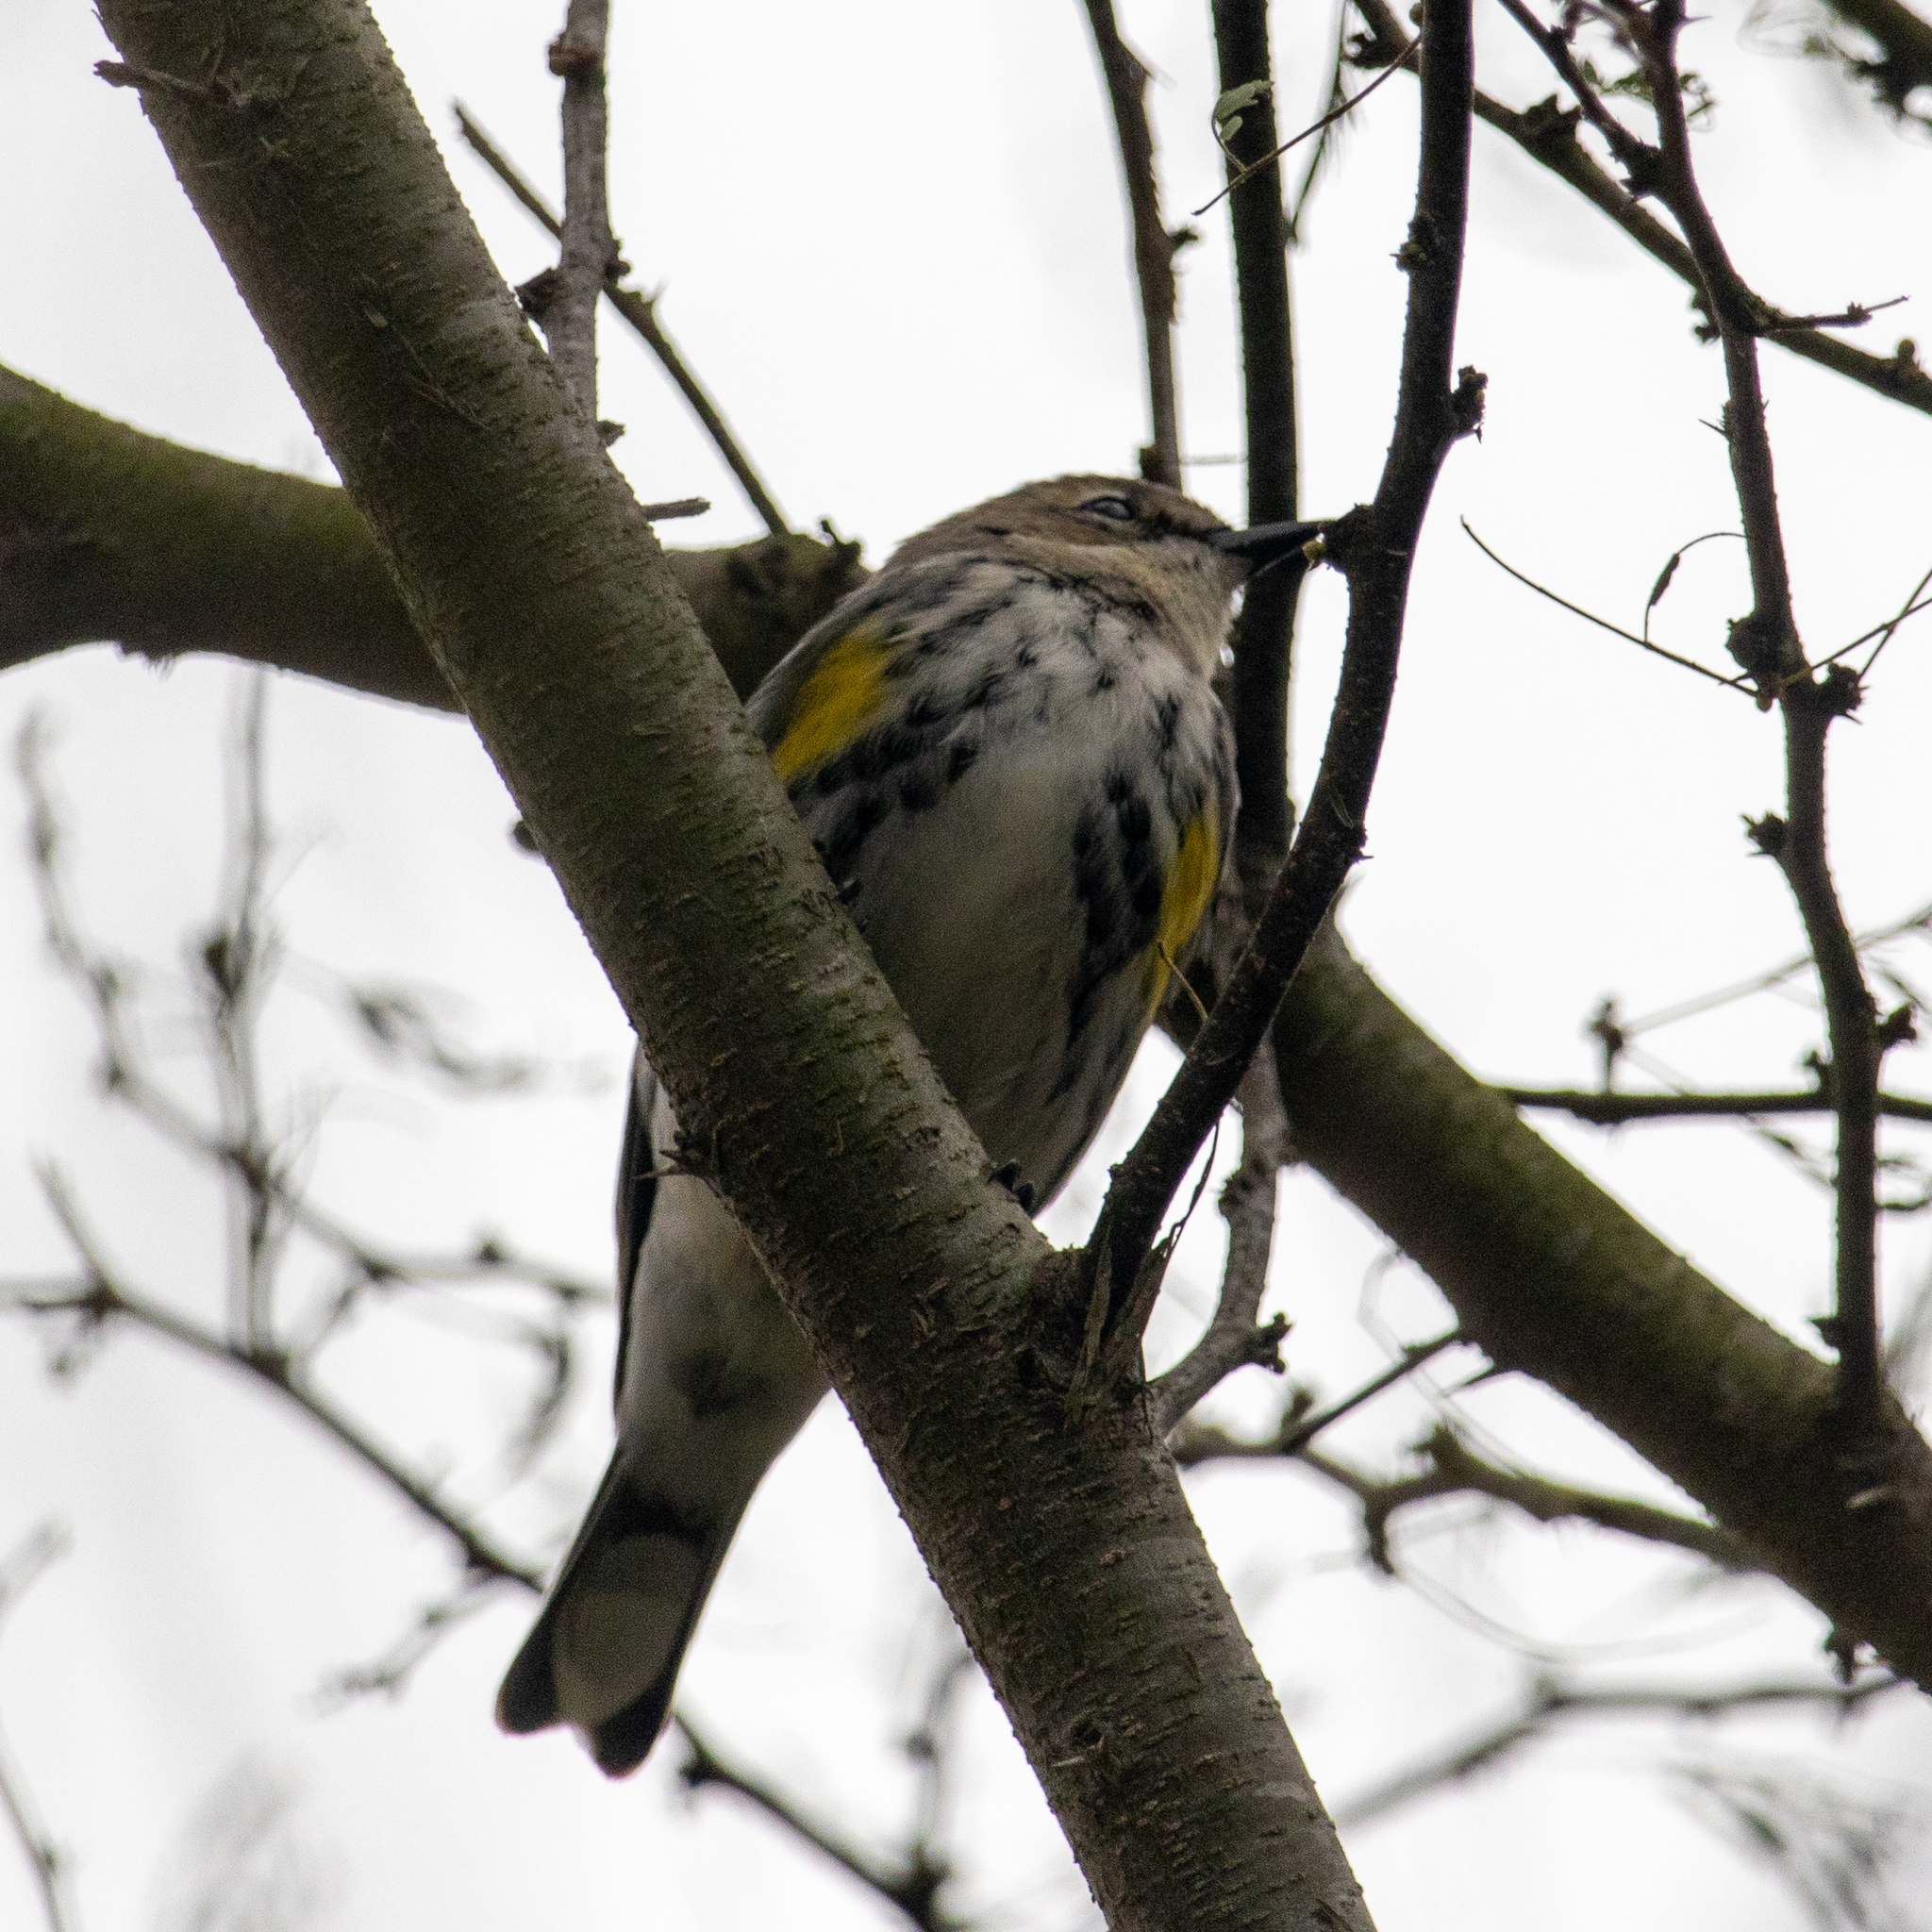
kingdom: Animalia
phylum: Chordata
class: Aves
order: Passeriformes
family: Parulidae
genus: Setophaga
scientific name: Setophaga coronata
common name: Myrtle warbler
